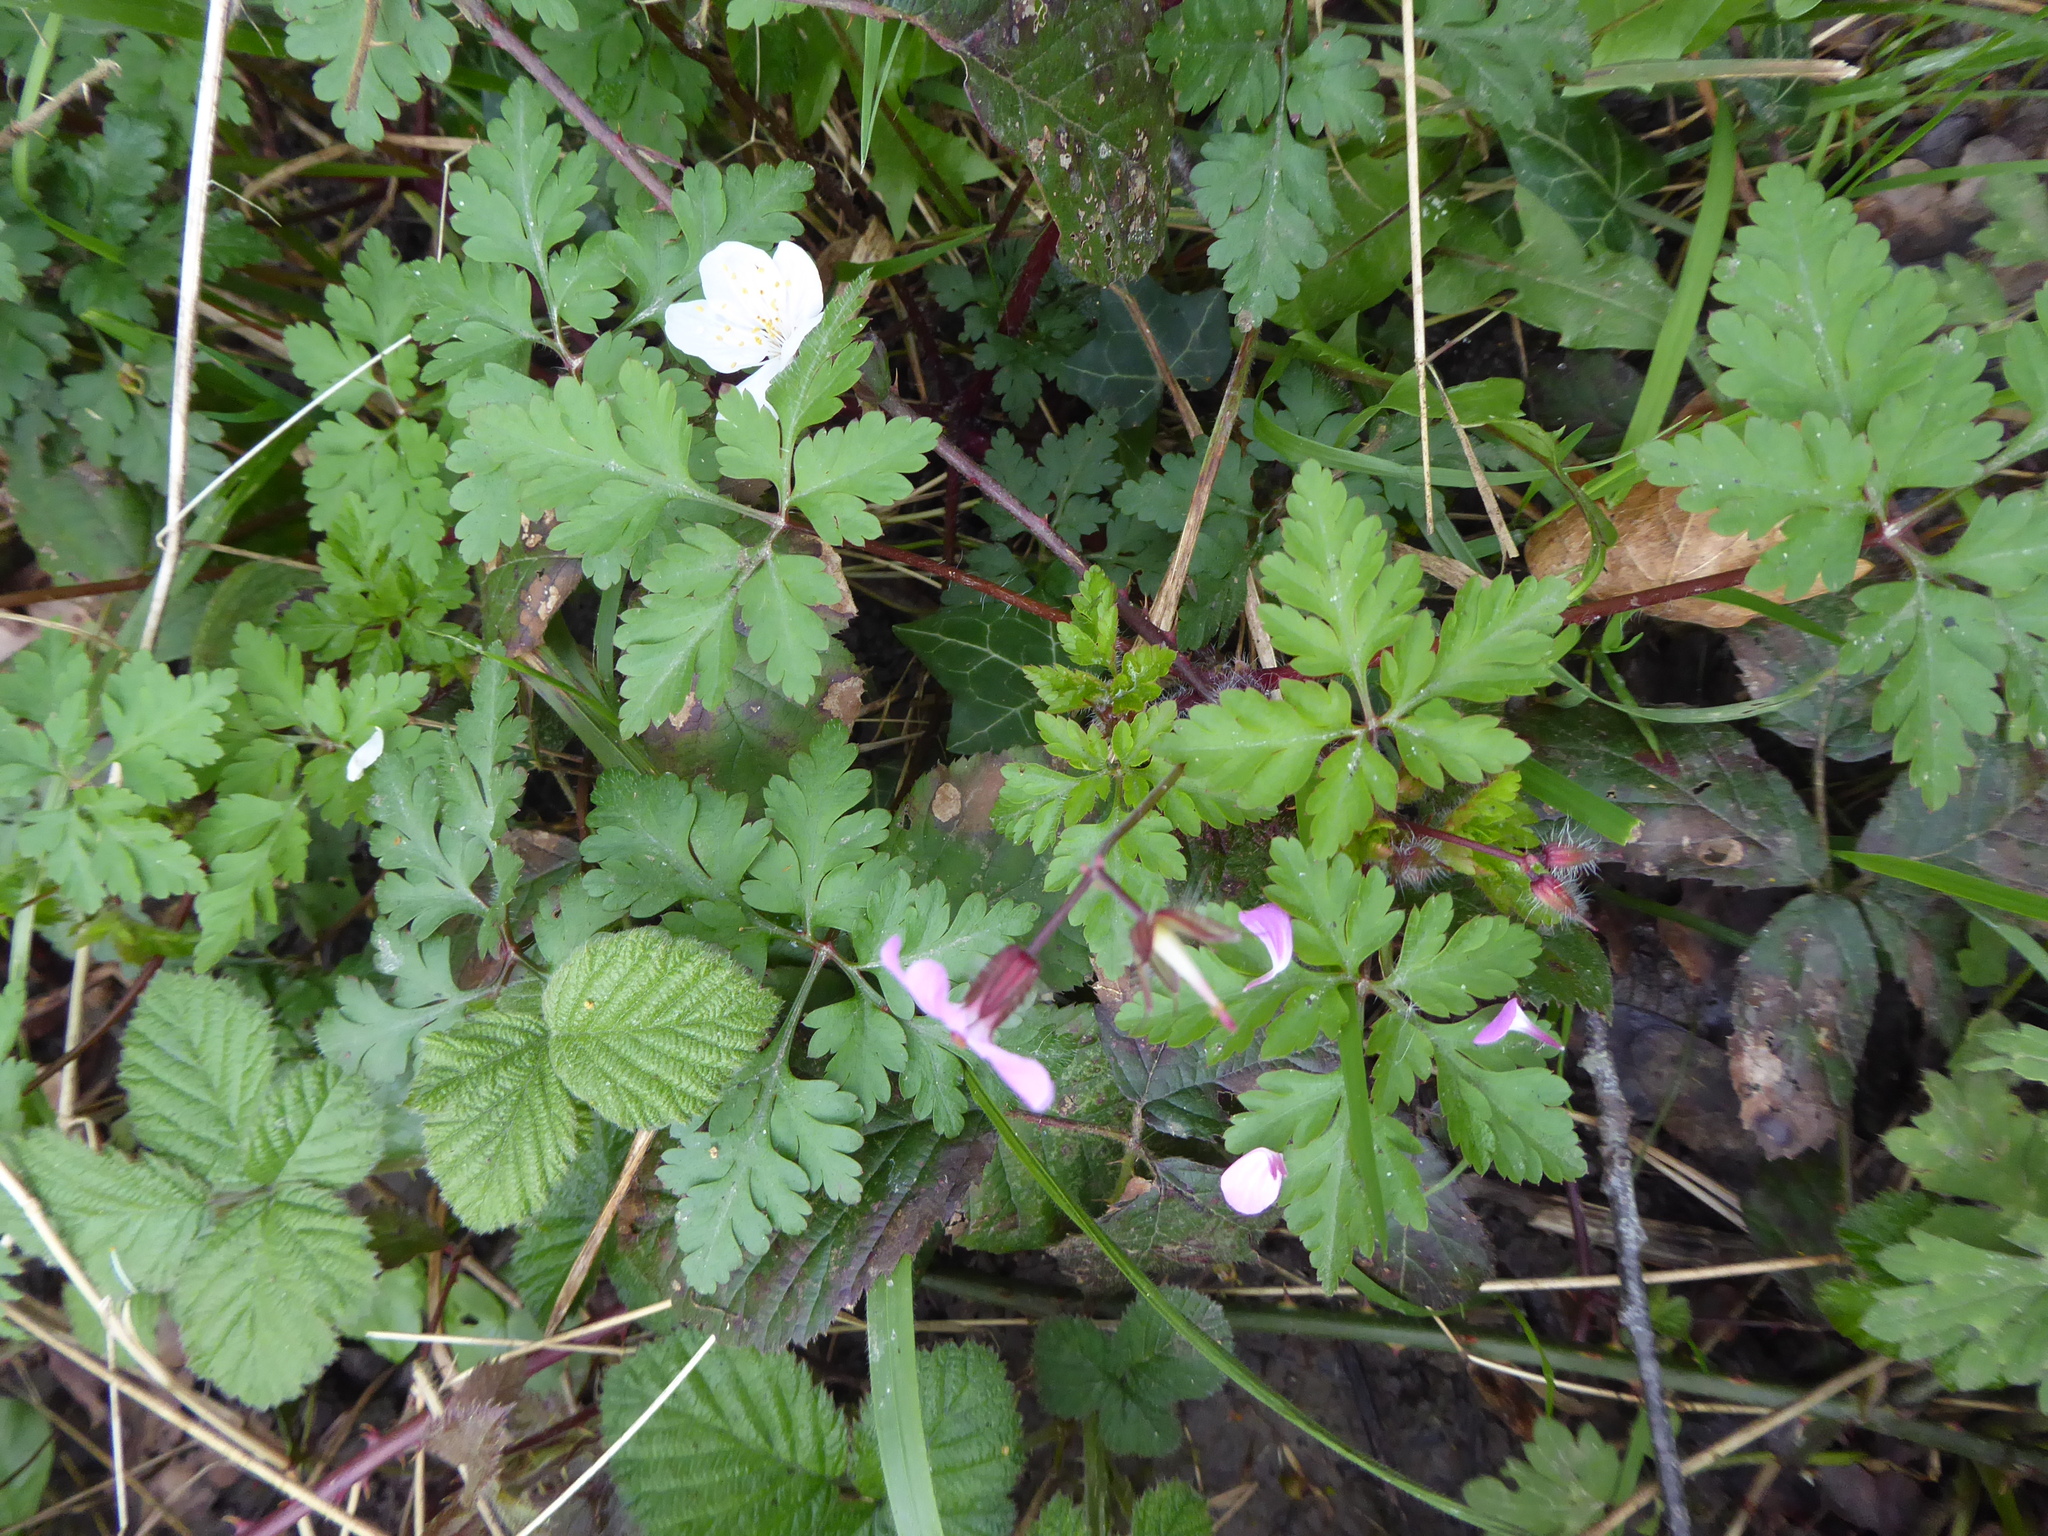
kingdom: Plantae
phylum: Tracheophyta
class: Magnoliopsida
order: Geraniales
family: Geraniaceae
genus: Geranium
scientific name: Geranium robertianum
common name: Herb-robert
